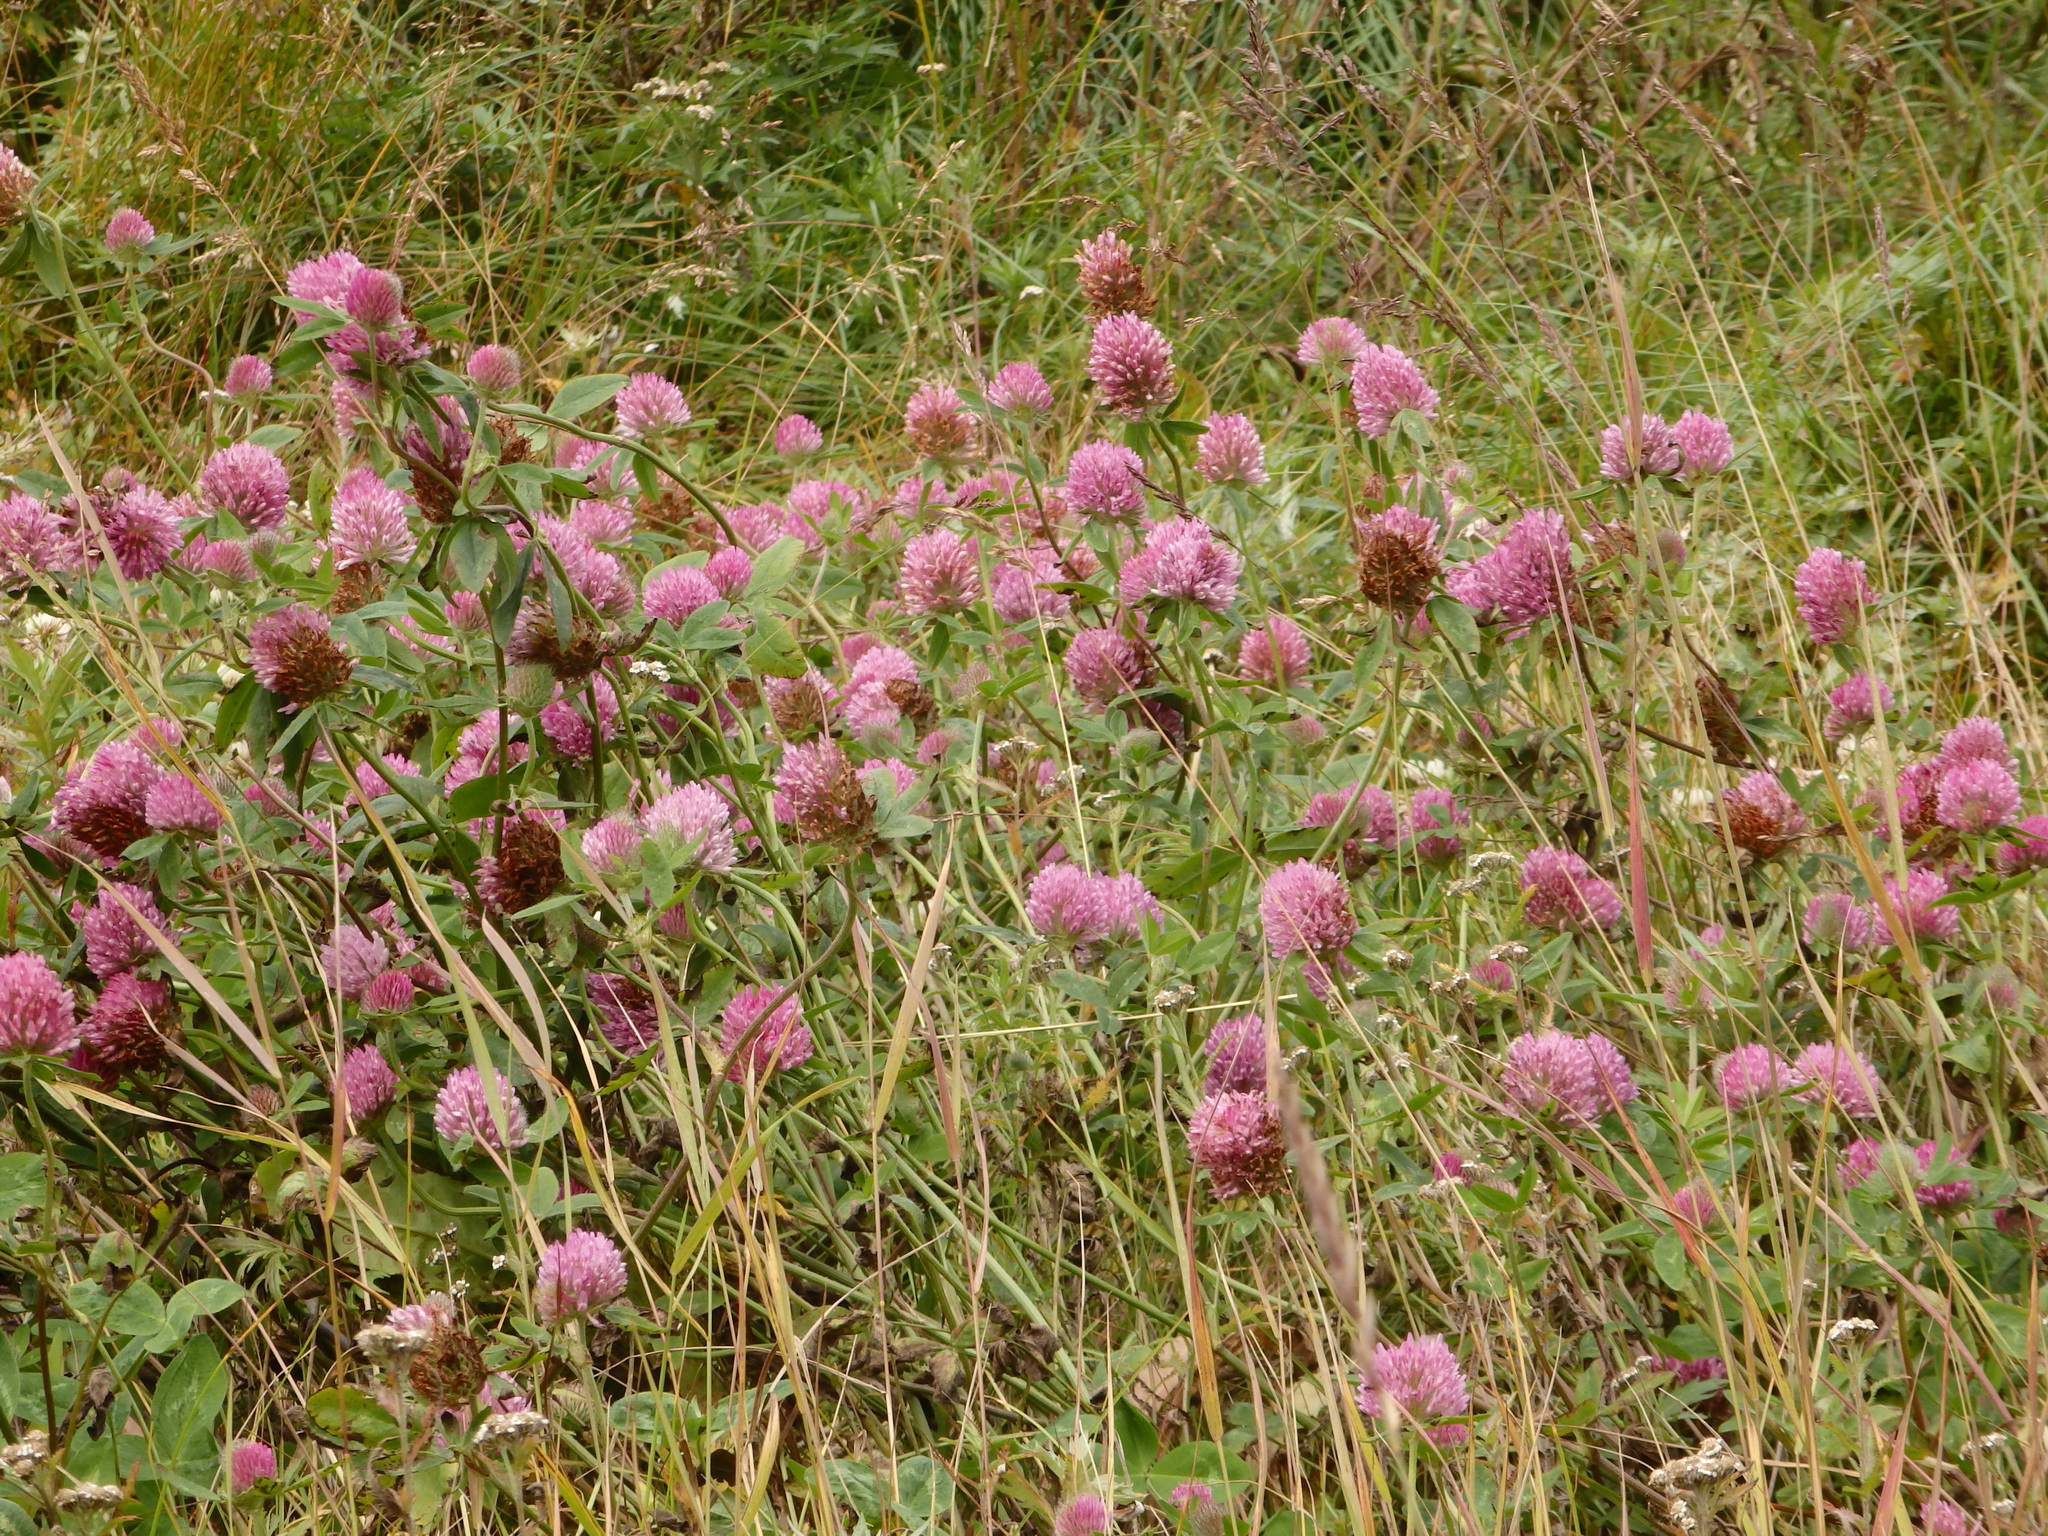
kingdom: Plantae
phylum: Tracheophyta
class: Magnoliopsida
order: Fabales
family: Fabaceae
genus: Trifolium
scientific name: Trifolium pratense
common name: Red clover
